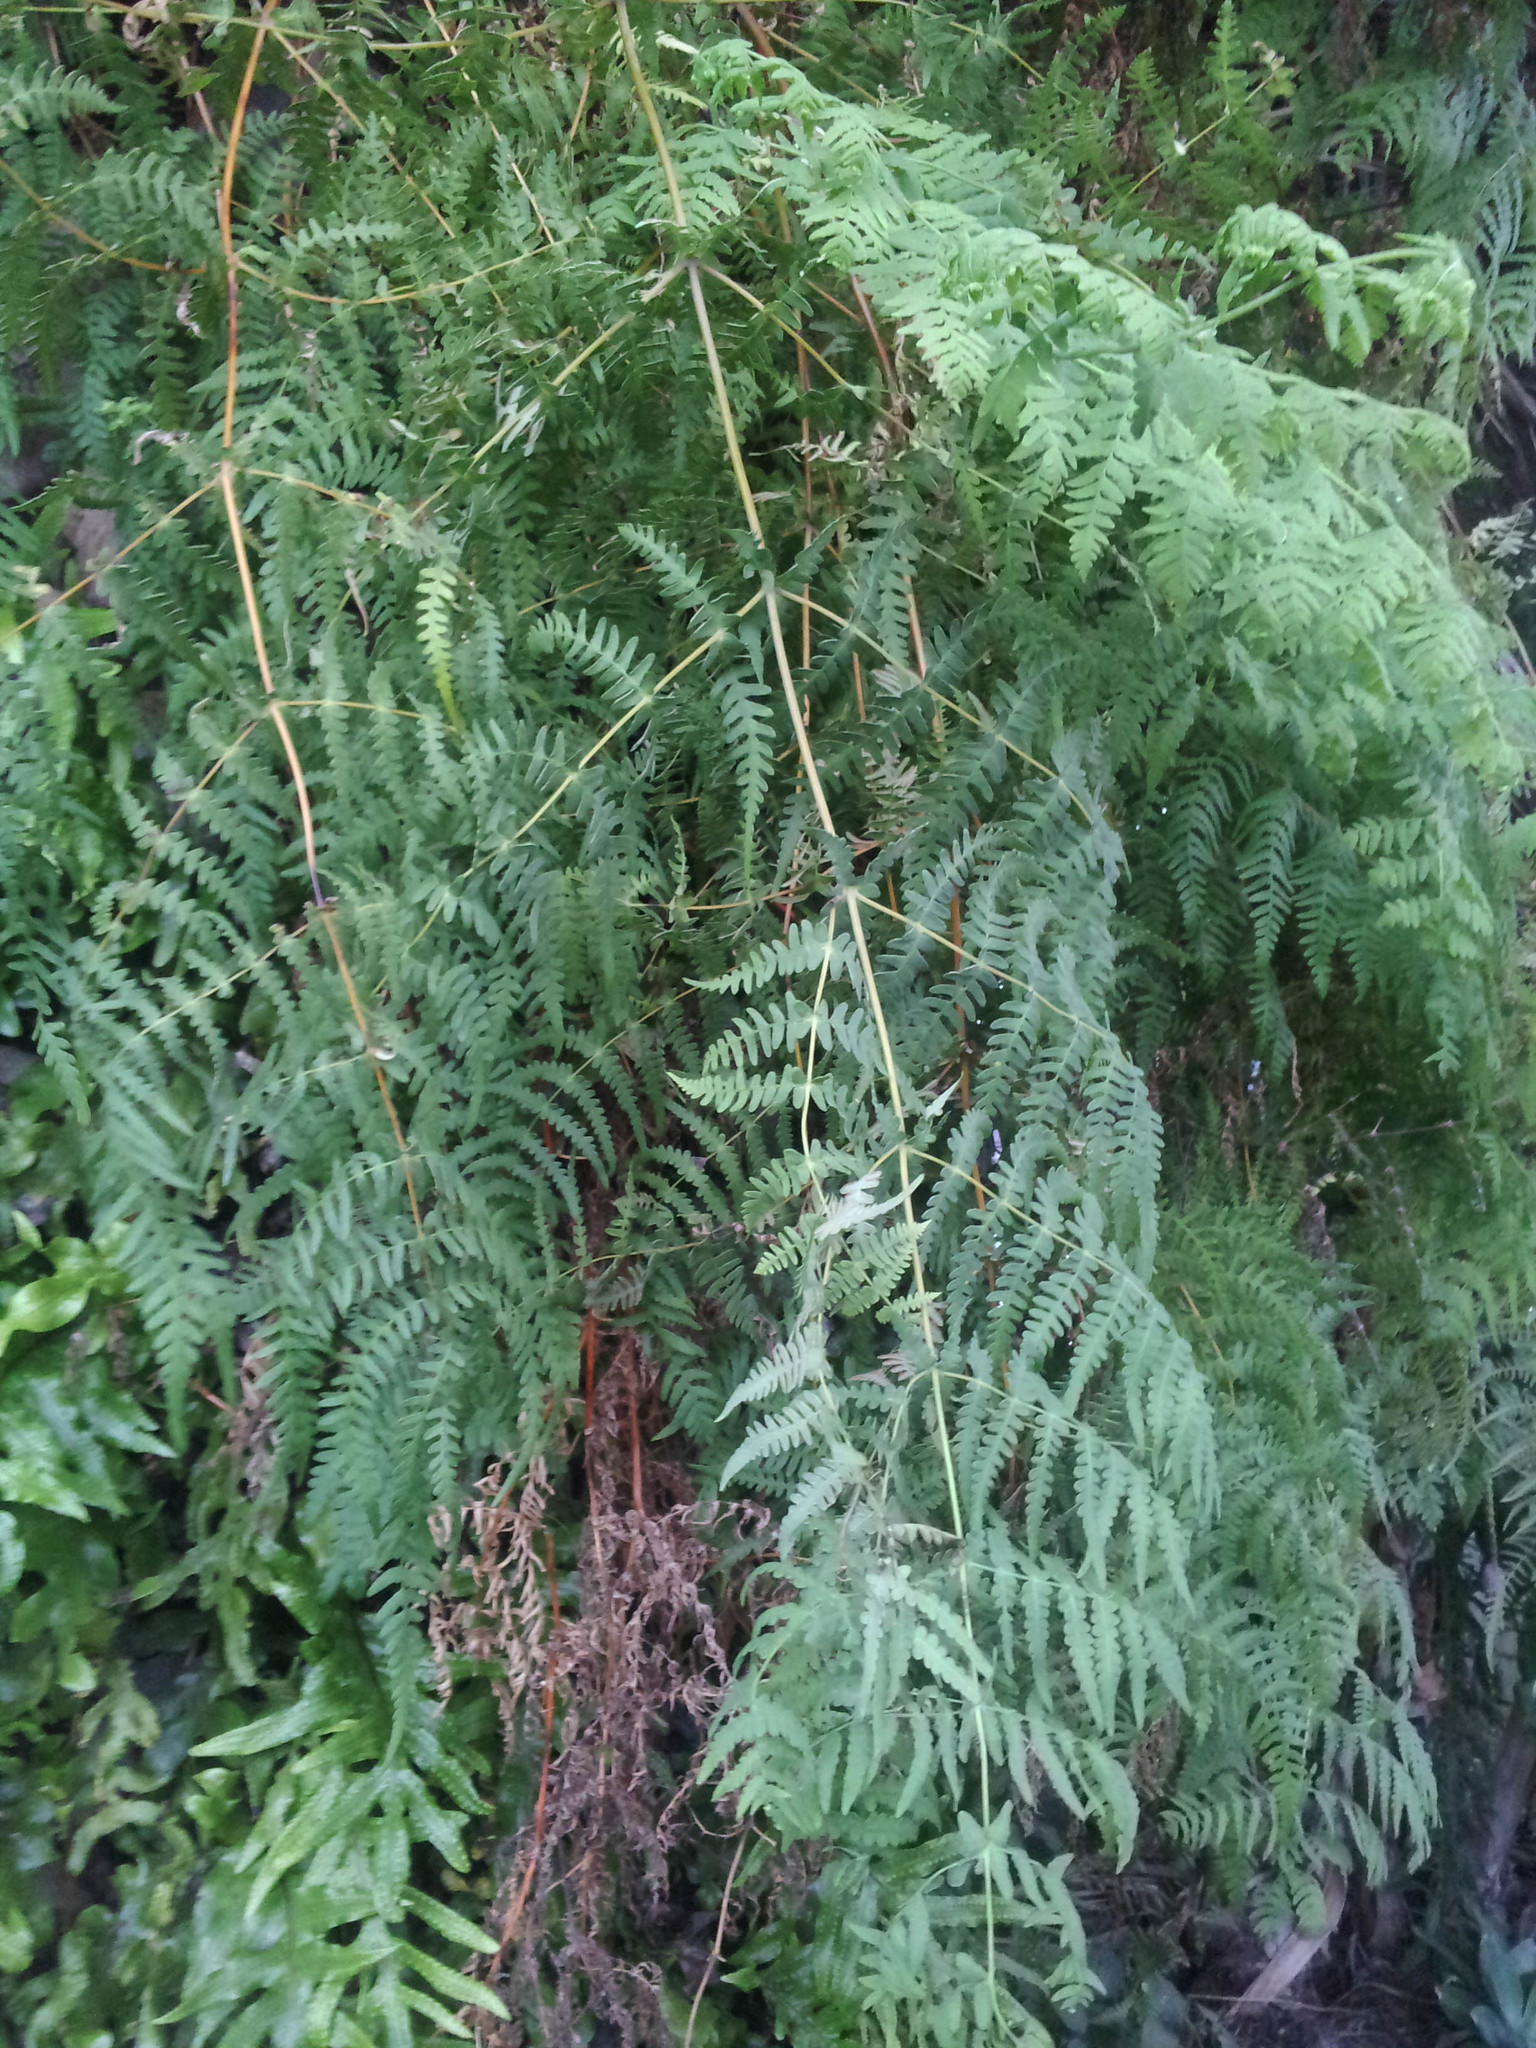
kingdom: Plantae
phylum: Tracheophyta
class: Polypodiopsida
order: Polypodiales
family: Dennstaedtiaceae
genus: Histiopteris
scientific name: Histiopteris incisa
